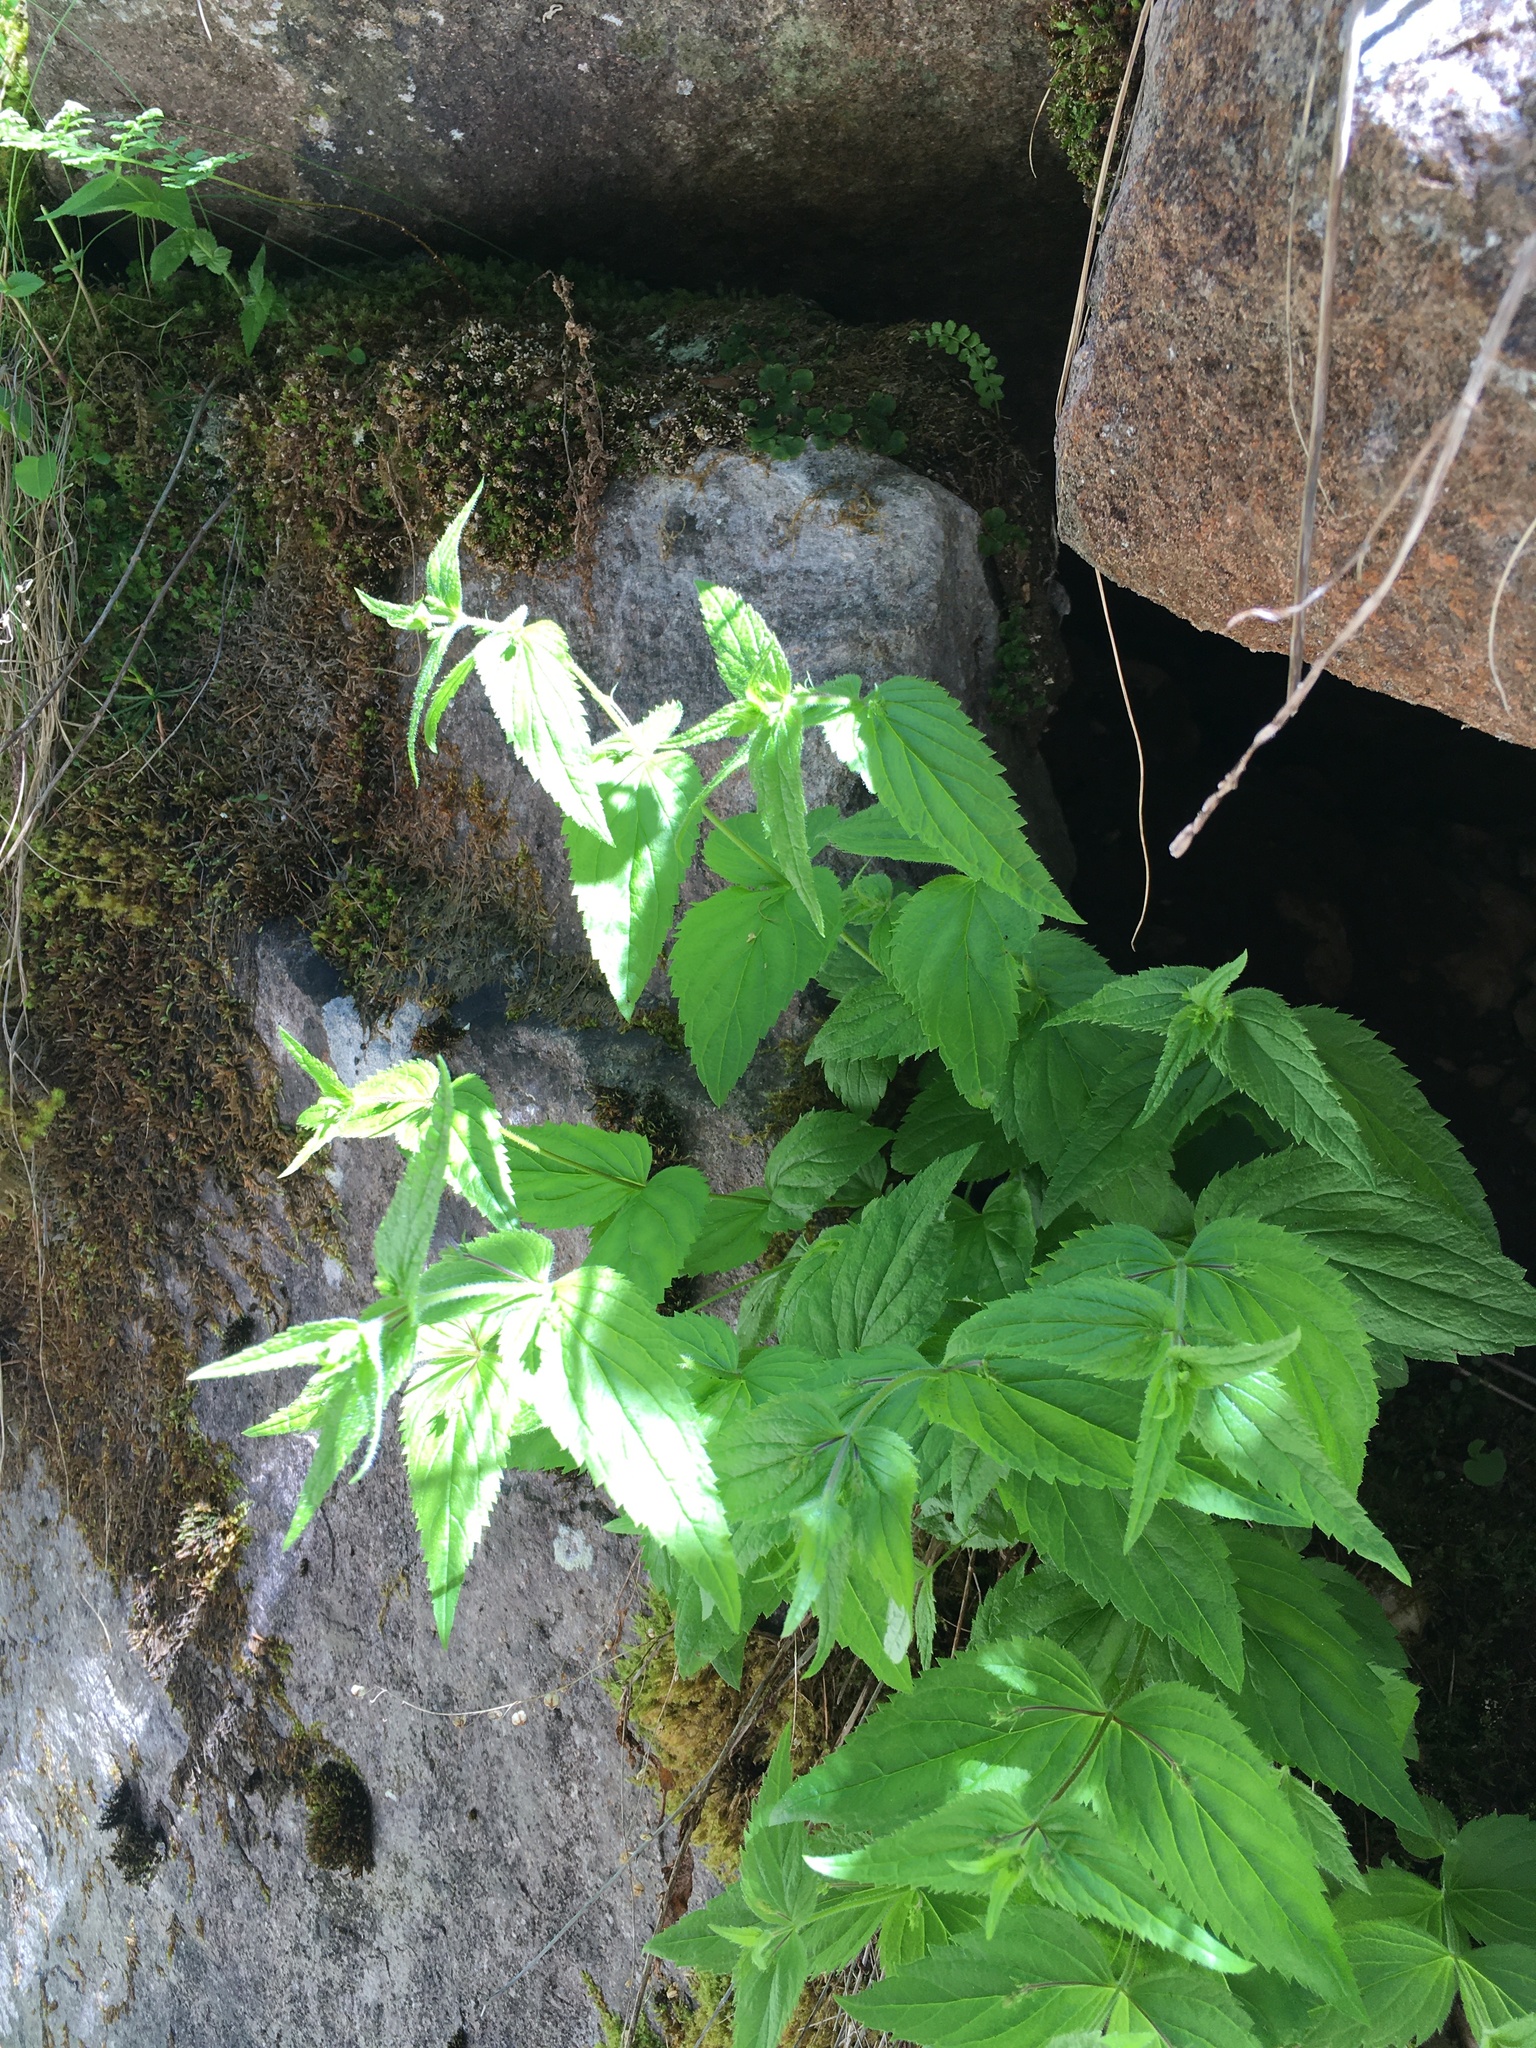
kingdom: Plantae
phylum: Tracheophyta
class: Magnoliopsida
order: Lamiales
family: Plantaginaceae
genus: Veronica
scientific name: Veronica urticifolia
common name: Nettle-leaf speedwell
